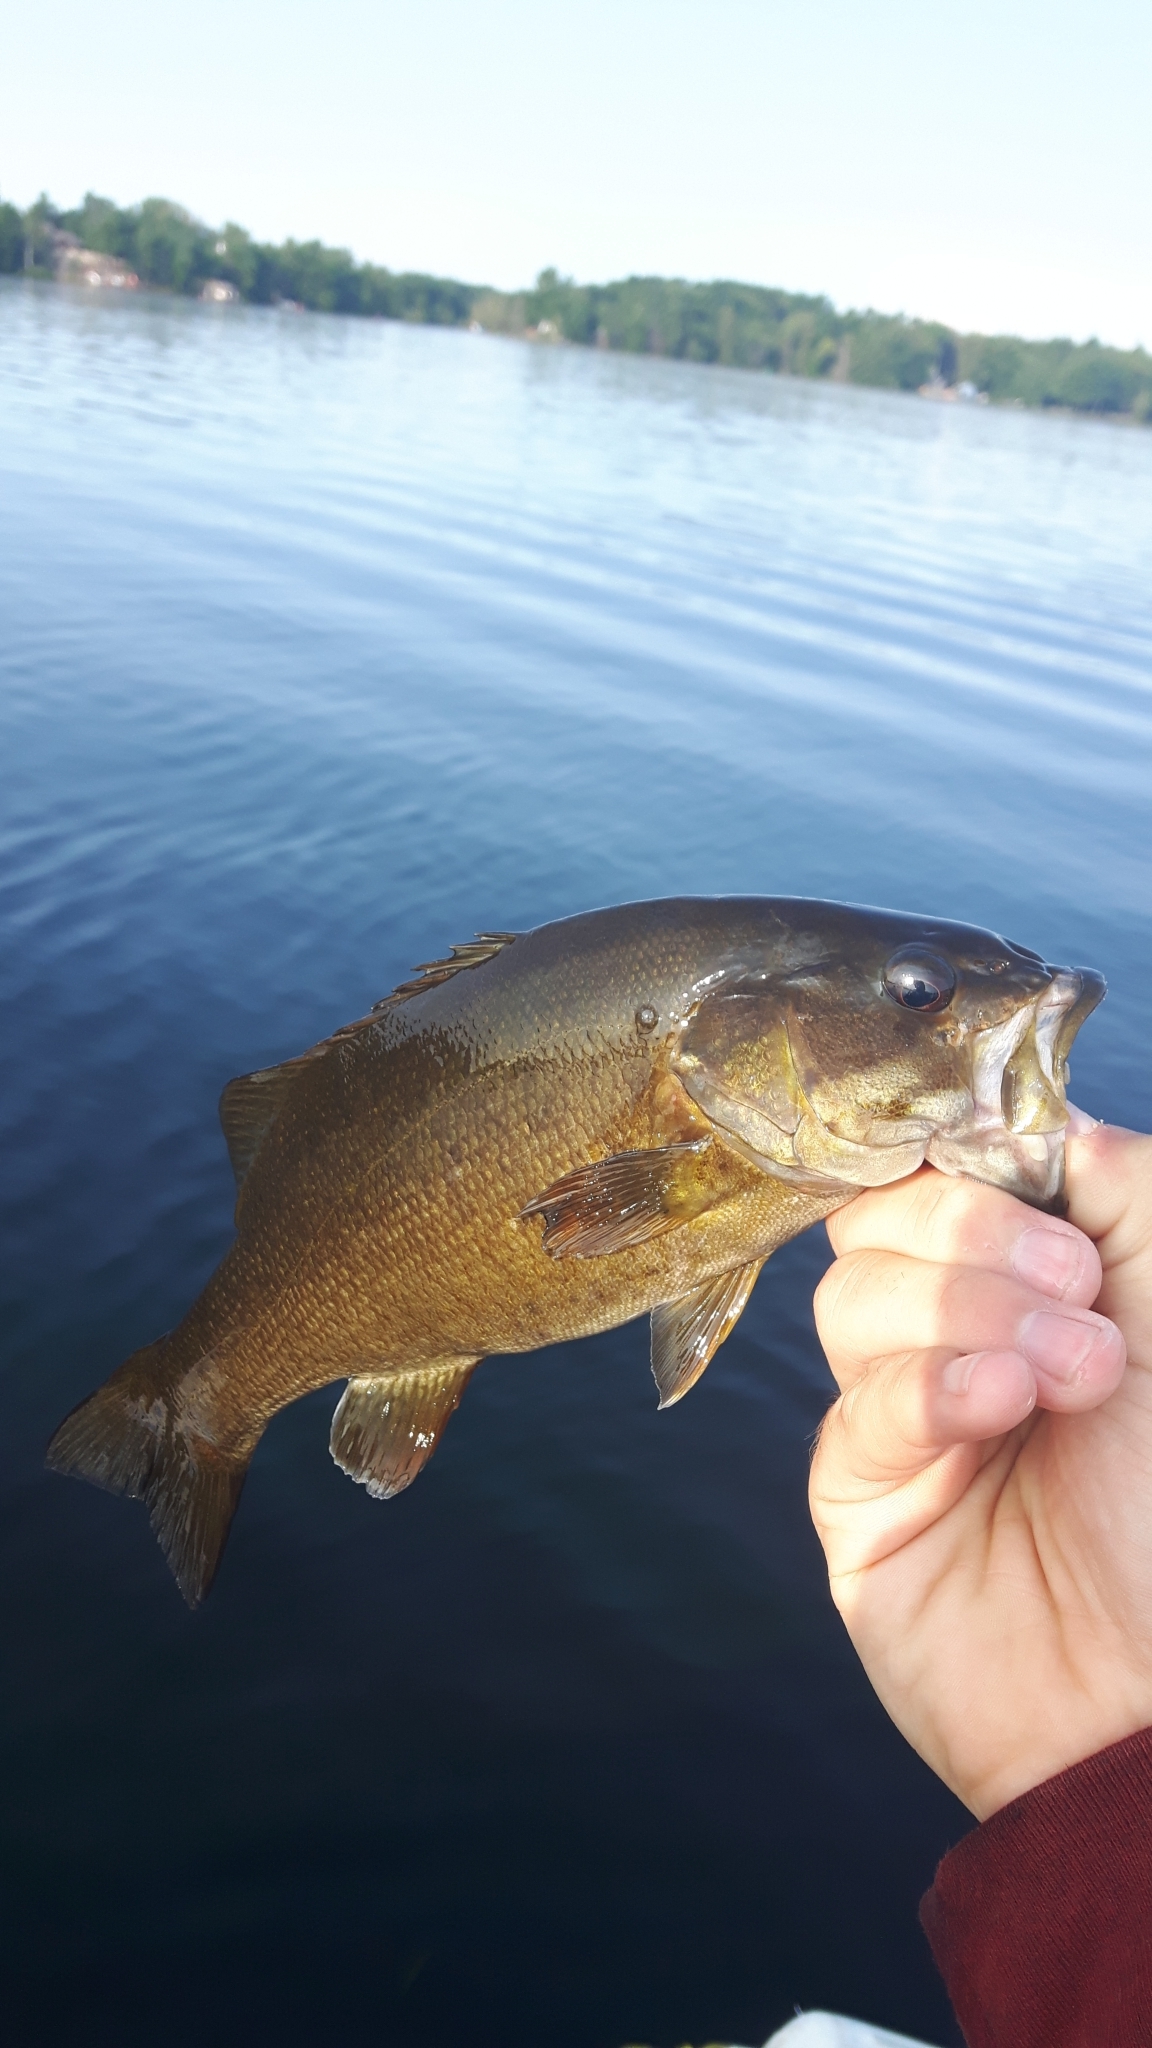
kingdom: Animalia
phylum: Chordata
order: Perciformes
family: Centrarchidae
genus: Micropterus
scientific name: Micropterus dolomieu
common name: Smallmouth bass
